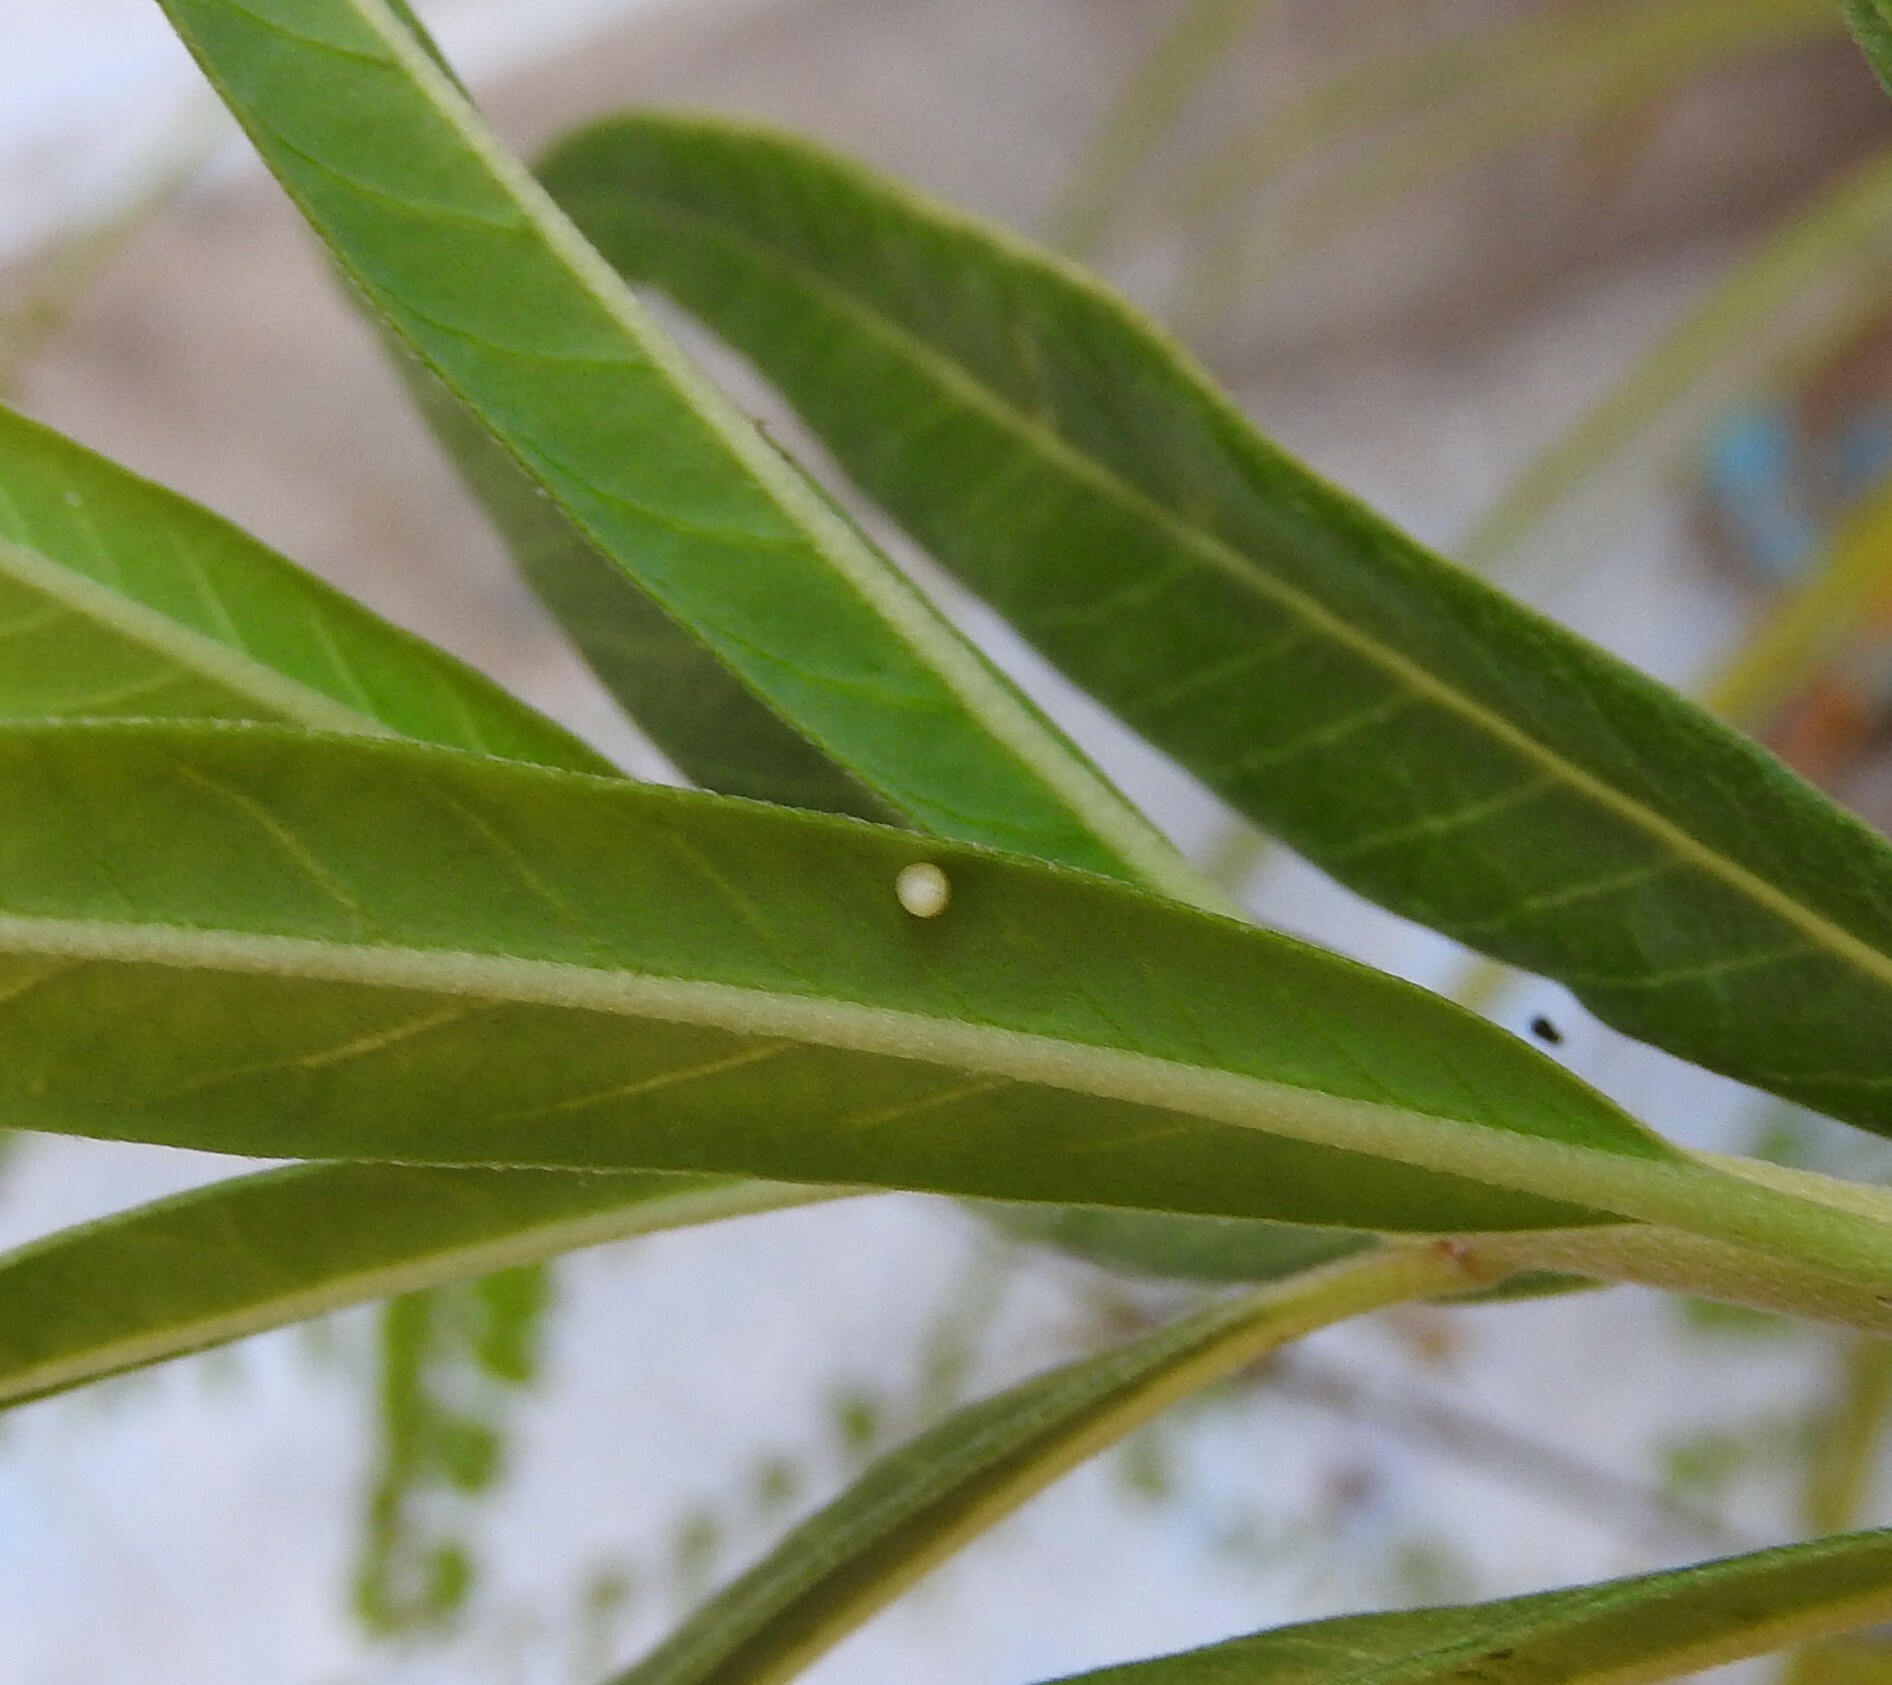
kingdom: Animalia
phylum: Arthropoda
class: Insecta
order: Lepidoptera
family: Nymphalidae
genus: Danaus
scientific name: Danaus plexippus
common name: Monarch
